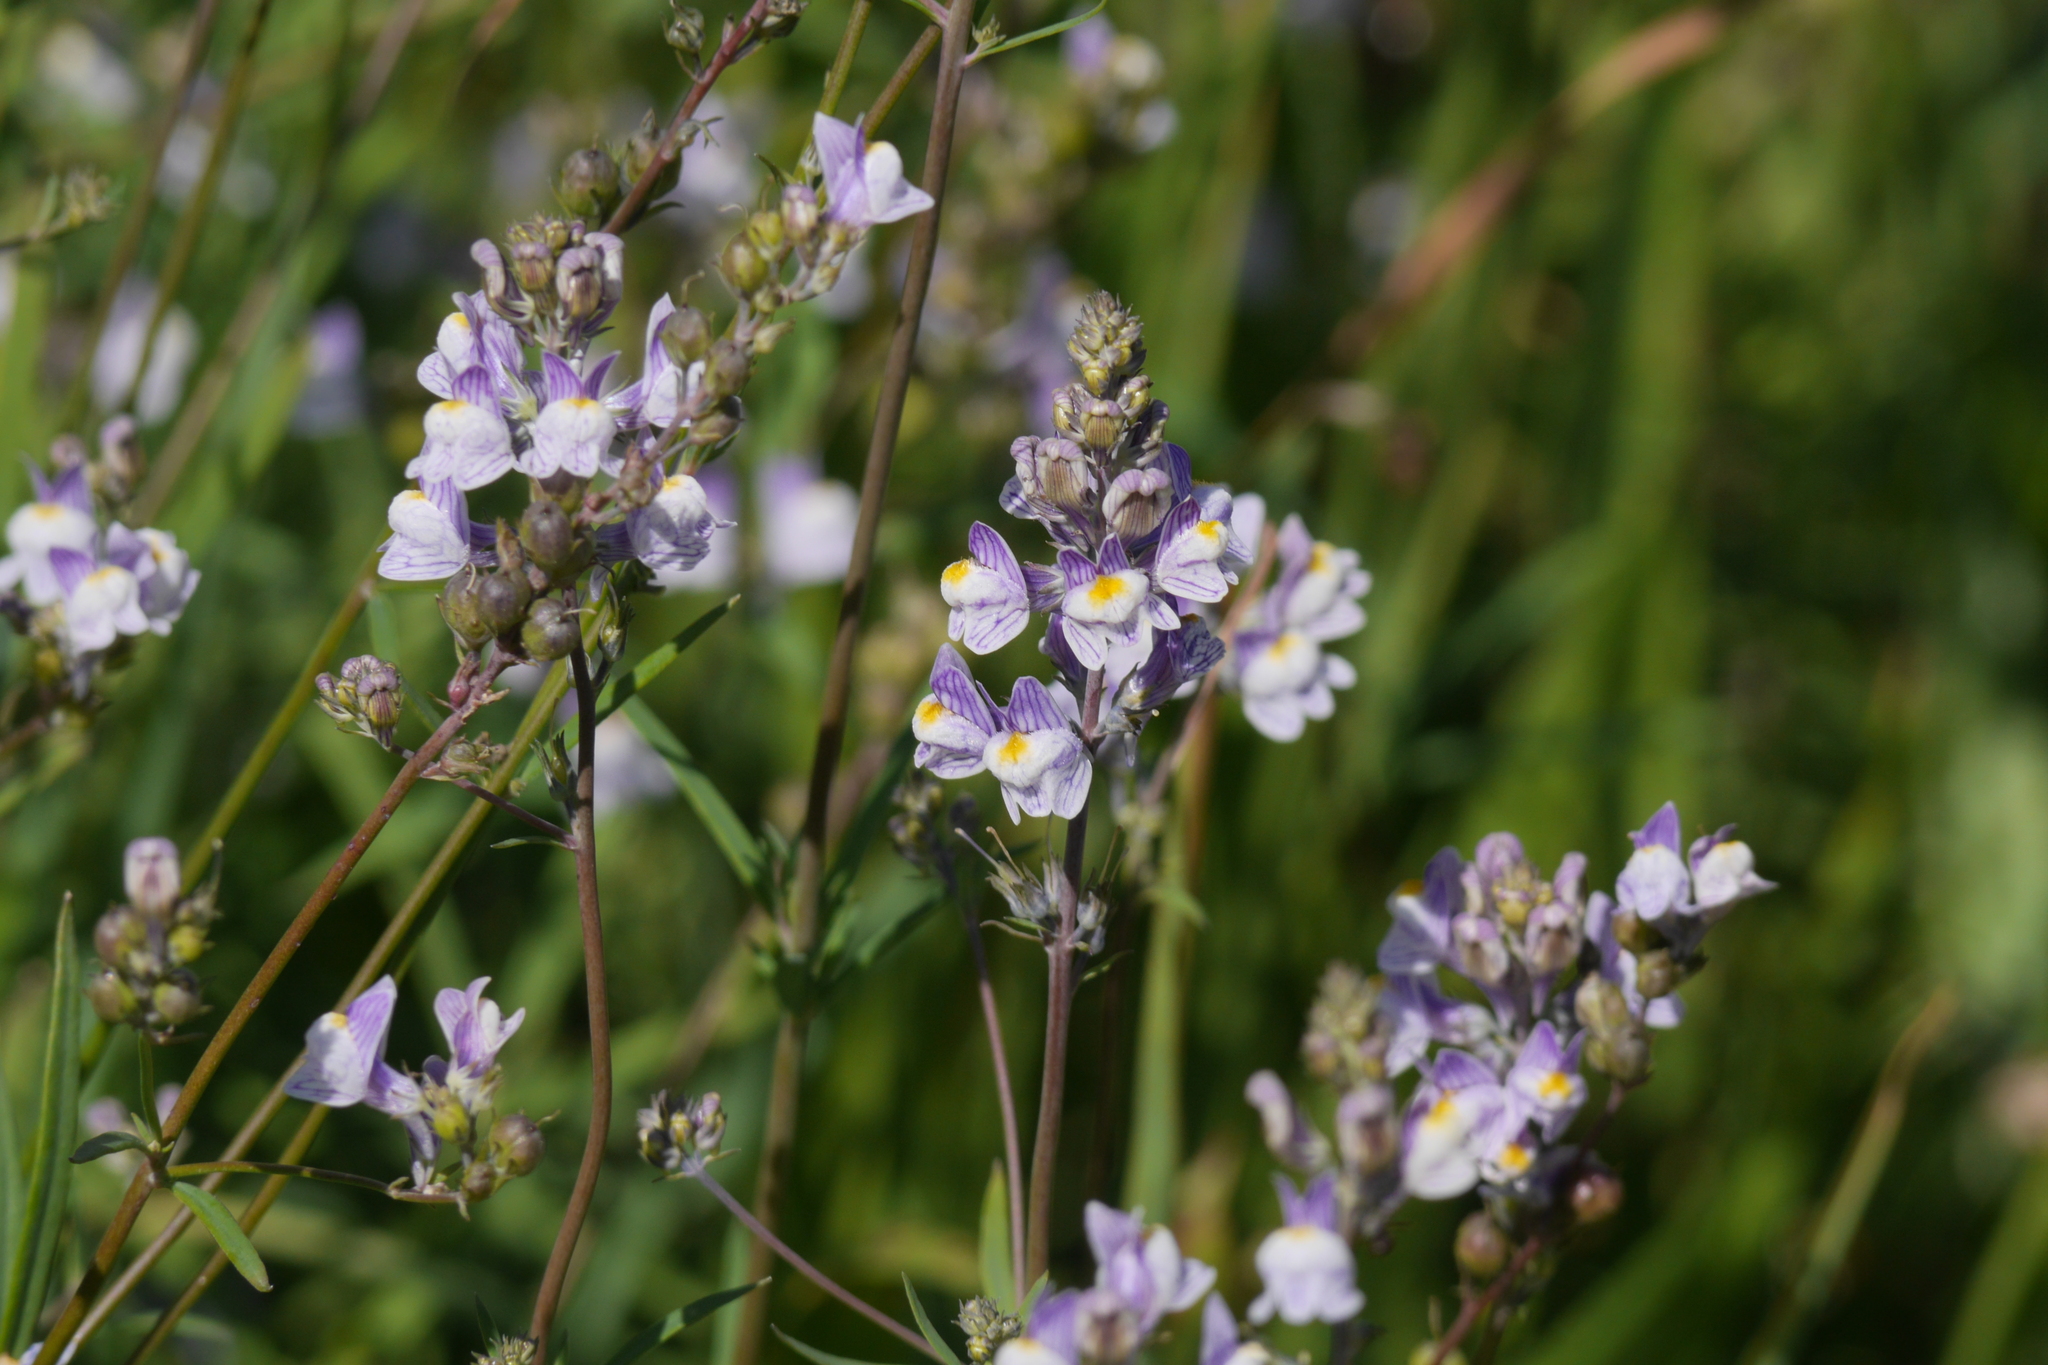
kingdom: Plantae
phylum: Tracheophyta
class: Magnoliopsida
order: Lamiales
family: Plantaginaceae
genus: Linaria
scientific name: Linaria repens
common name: Pale toadflax
